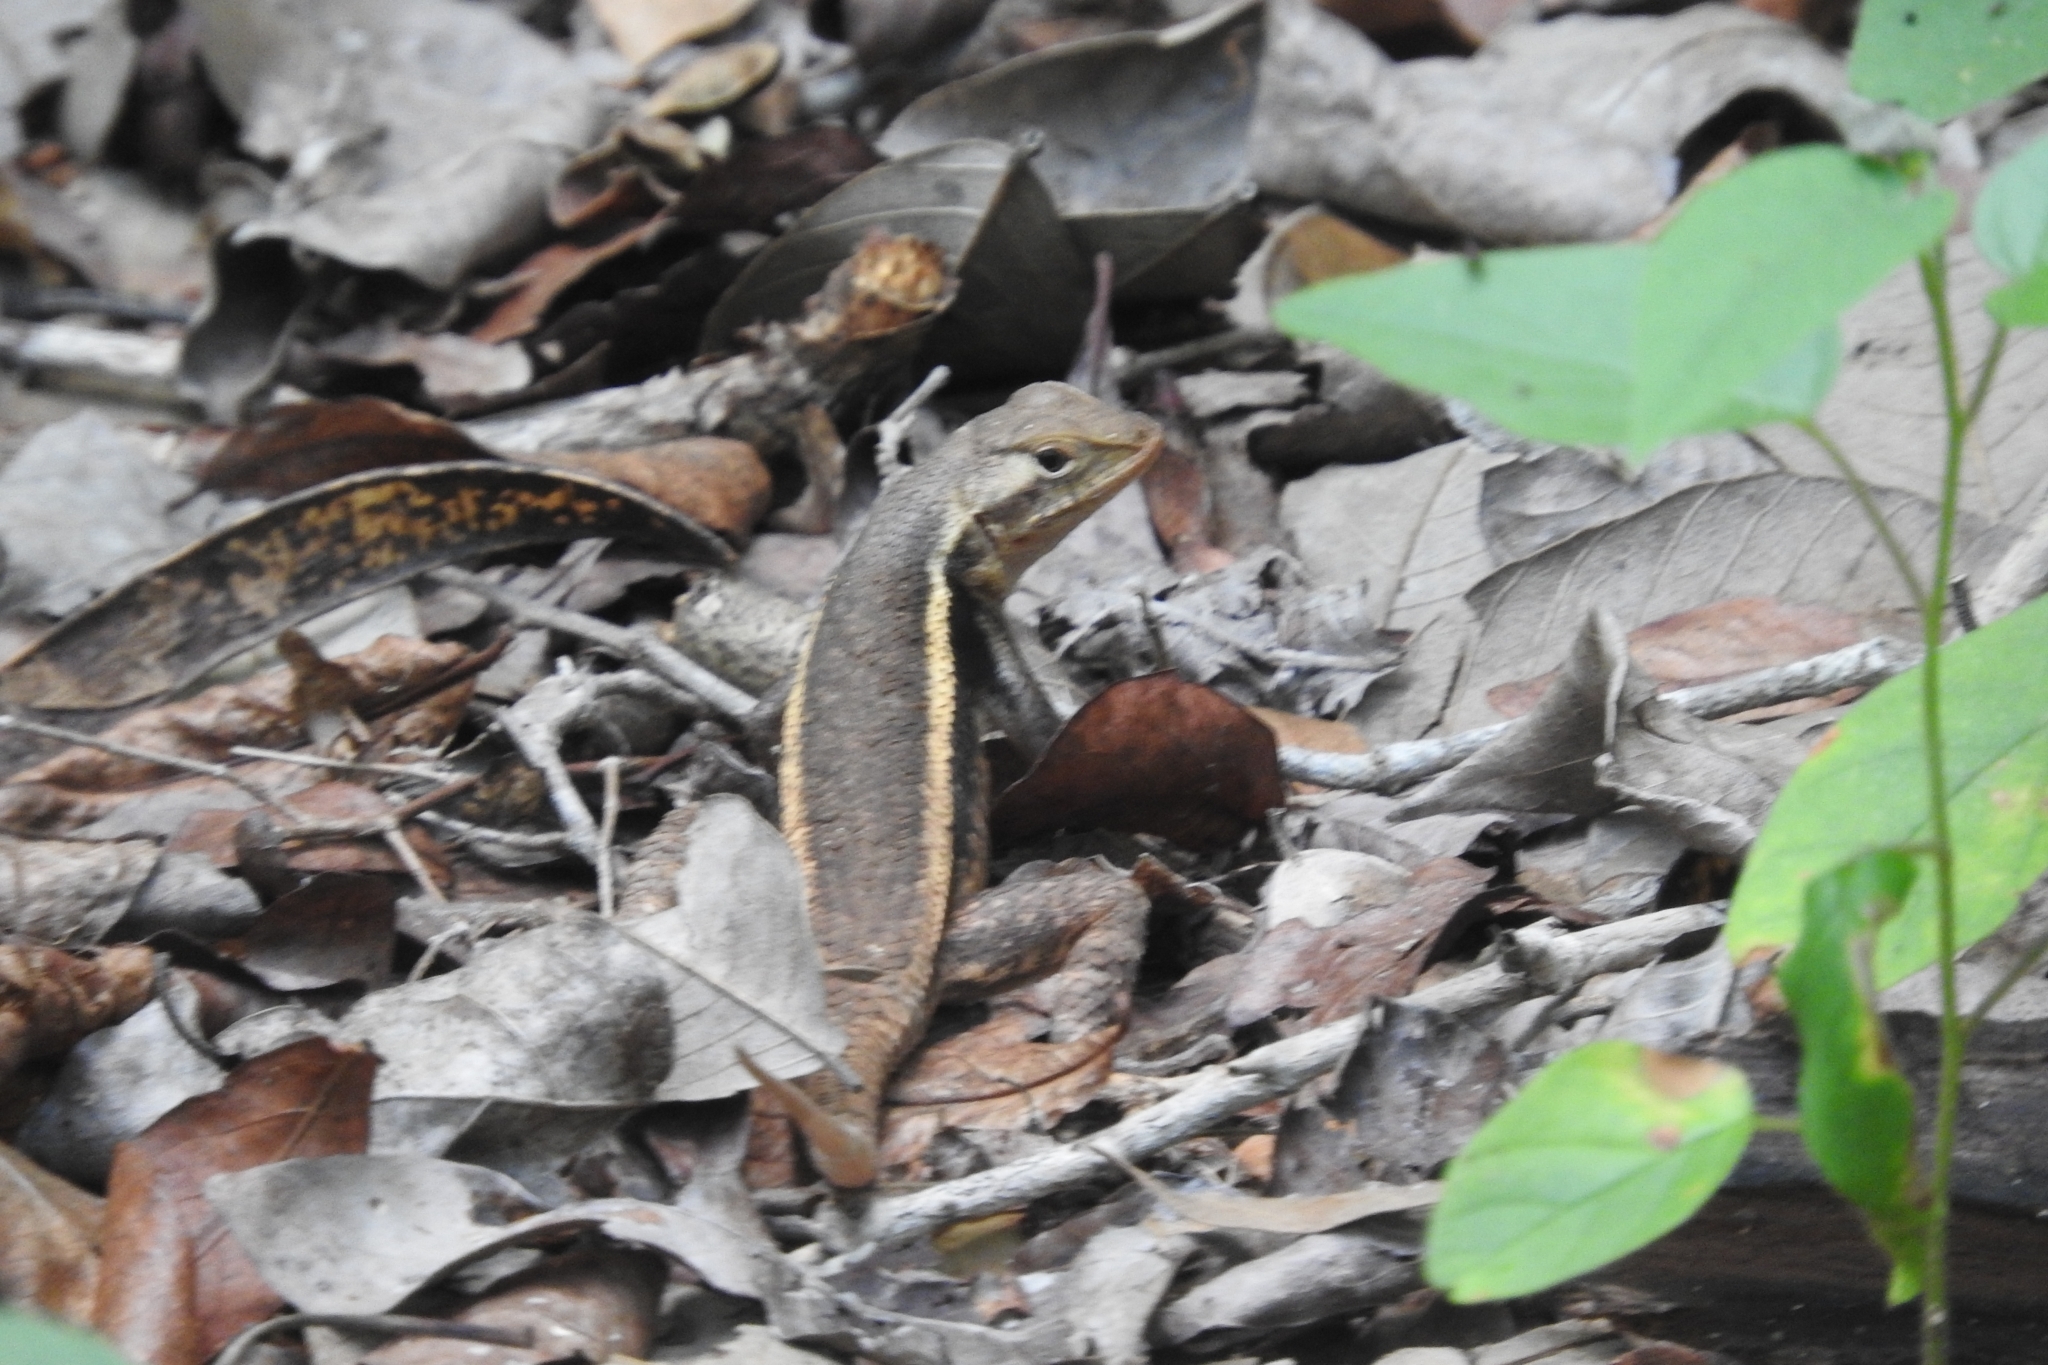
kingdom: Animalia
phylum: Chordata
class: Squamata
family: Phrynosomatidae
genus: Sceloporus
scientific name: Sceloporus chrysostictus
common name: Yellow-spotted spiny lizard
